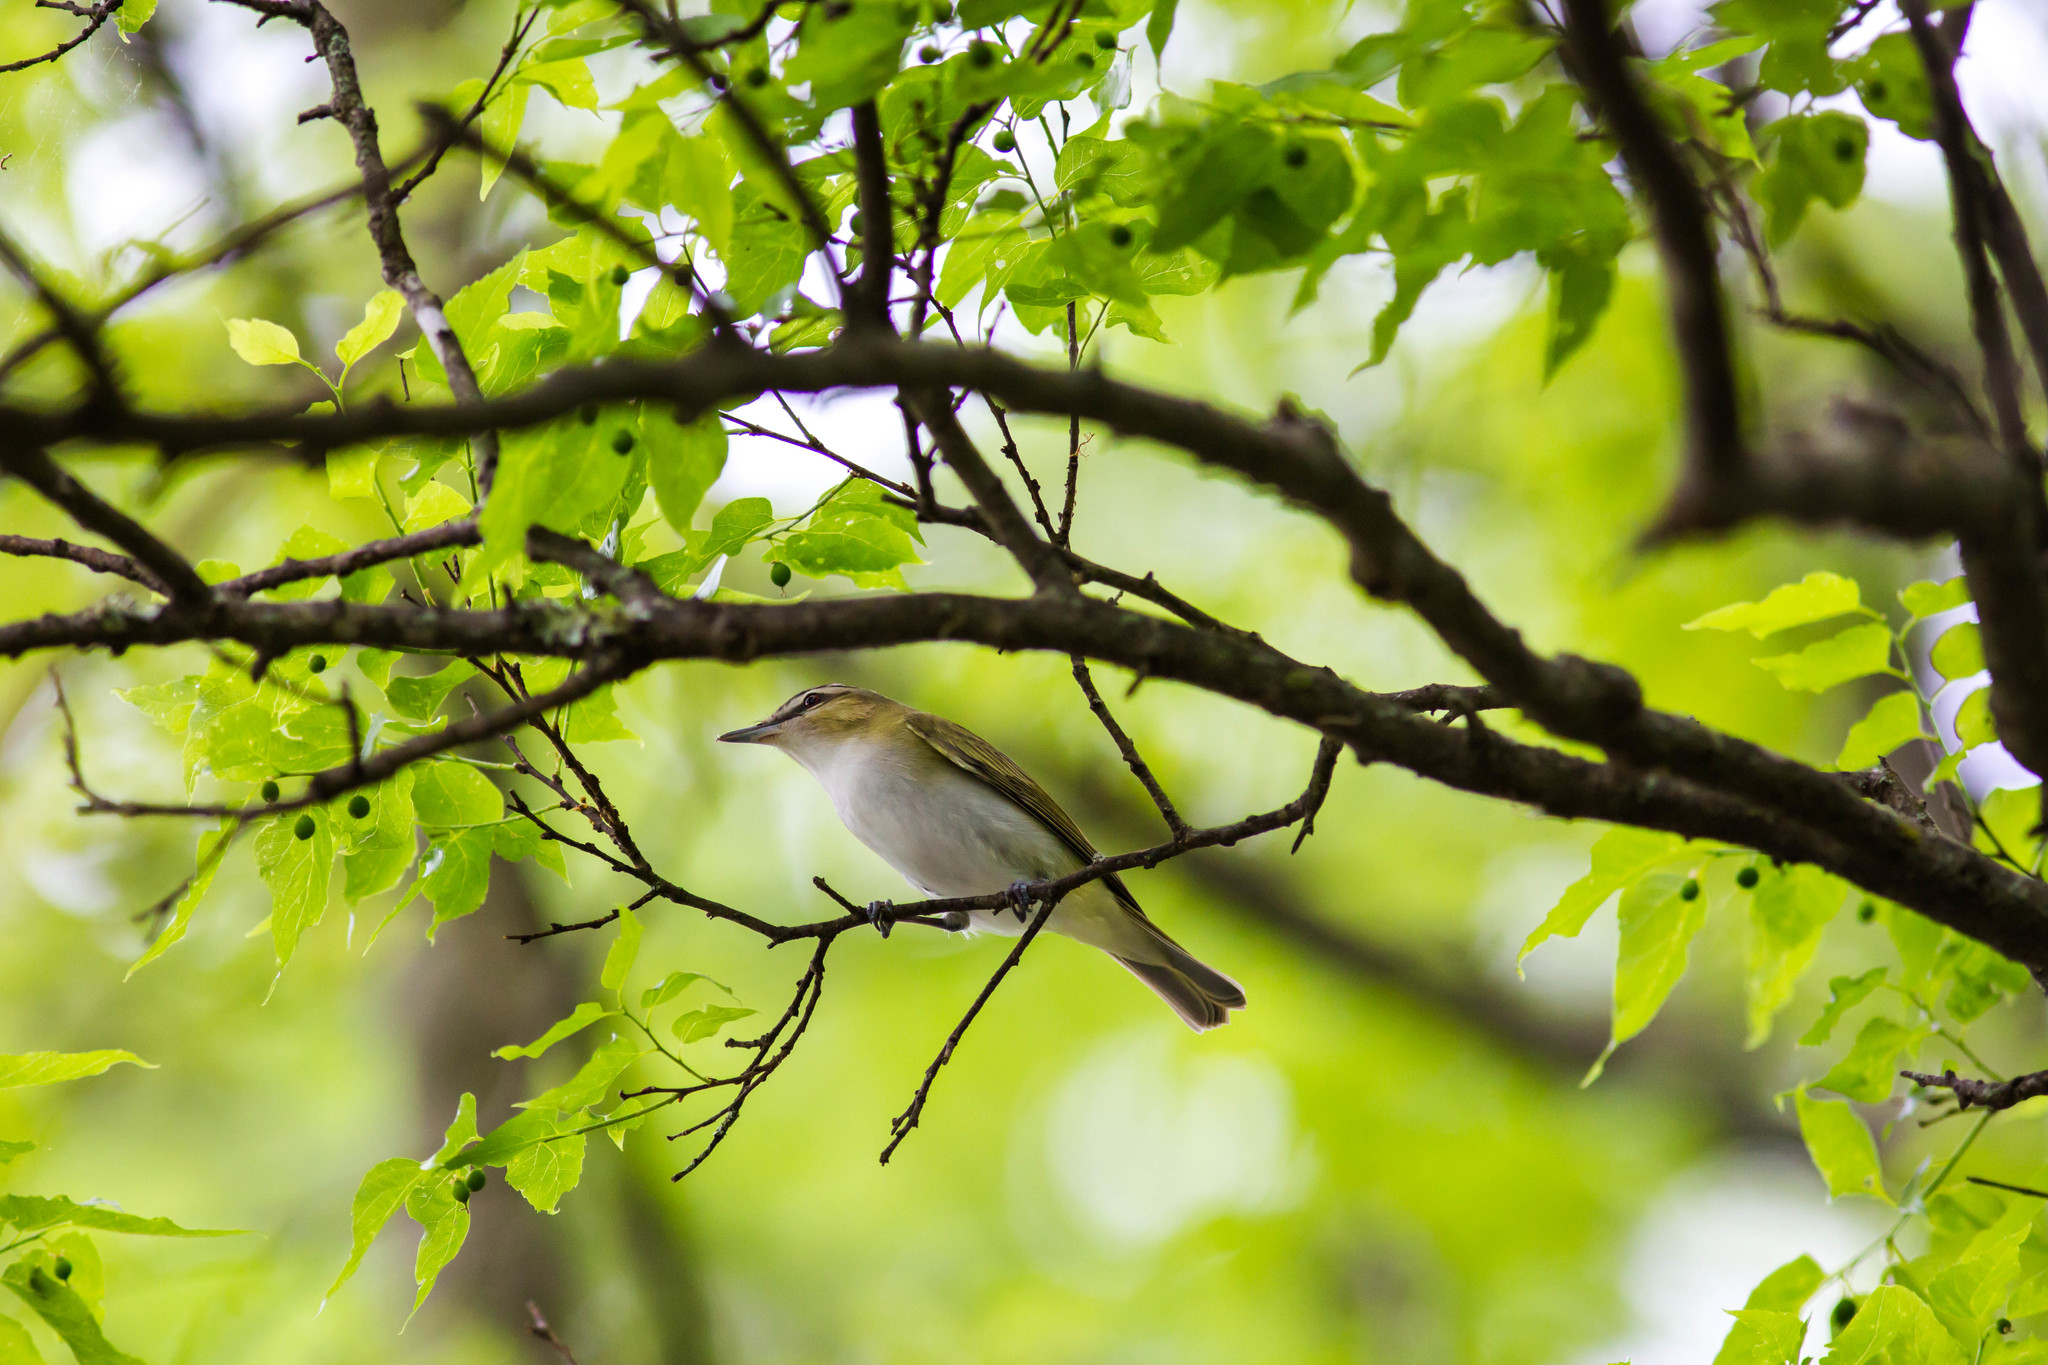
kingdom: Animalia
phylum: Chordata
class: Aves
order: Passeriformes
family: Vireonidae
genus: Vireo
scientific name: Vireo olivaceus
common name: Red-eyed vireo
